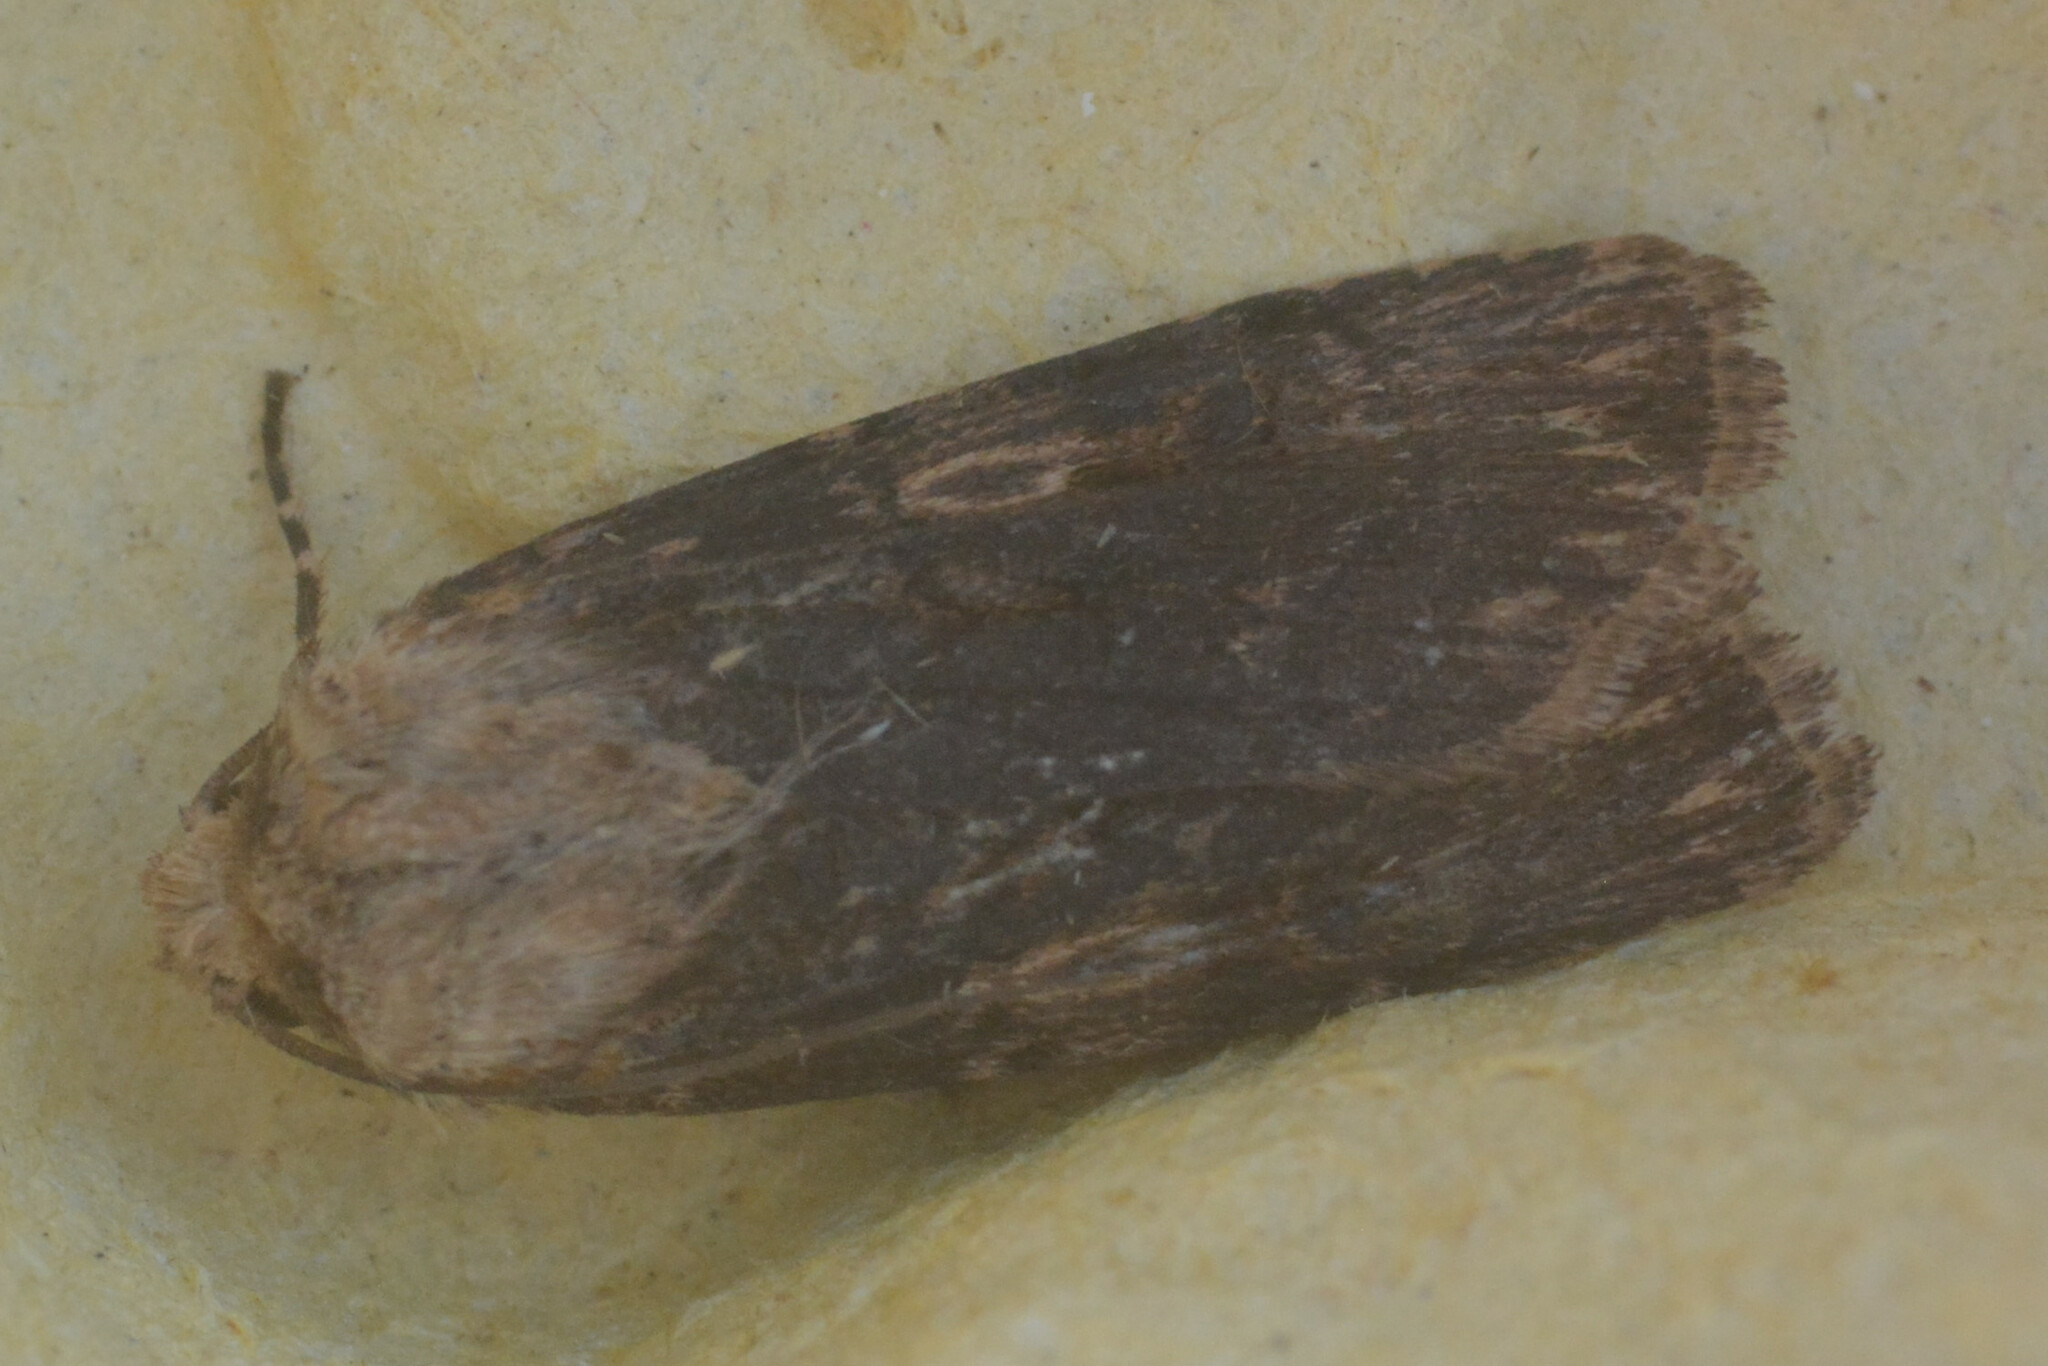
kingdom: Animalia
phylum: Arthropoda
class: Insecta
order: Lepidoptera
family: Noctuidae
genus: Agrotis
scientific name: Agrotis puta
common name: Shuttle-shaped dart
